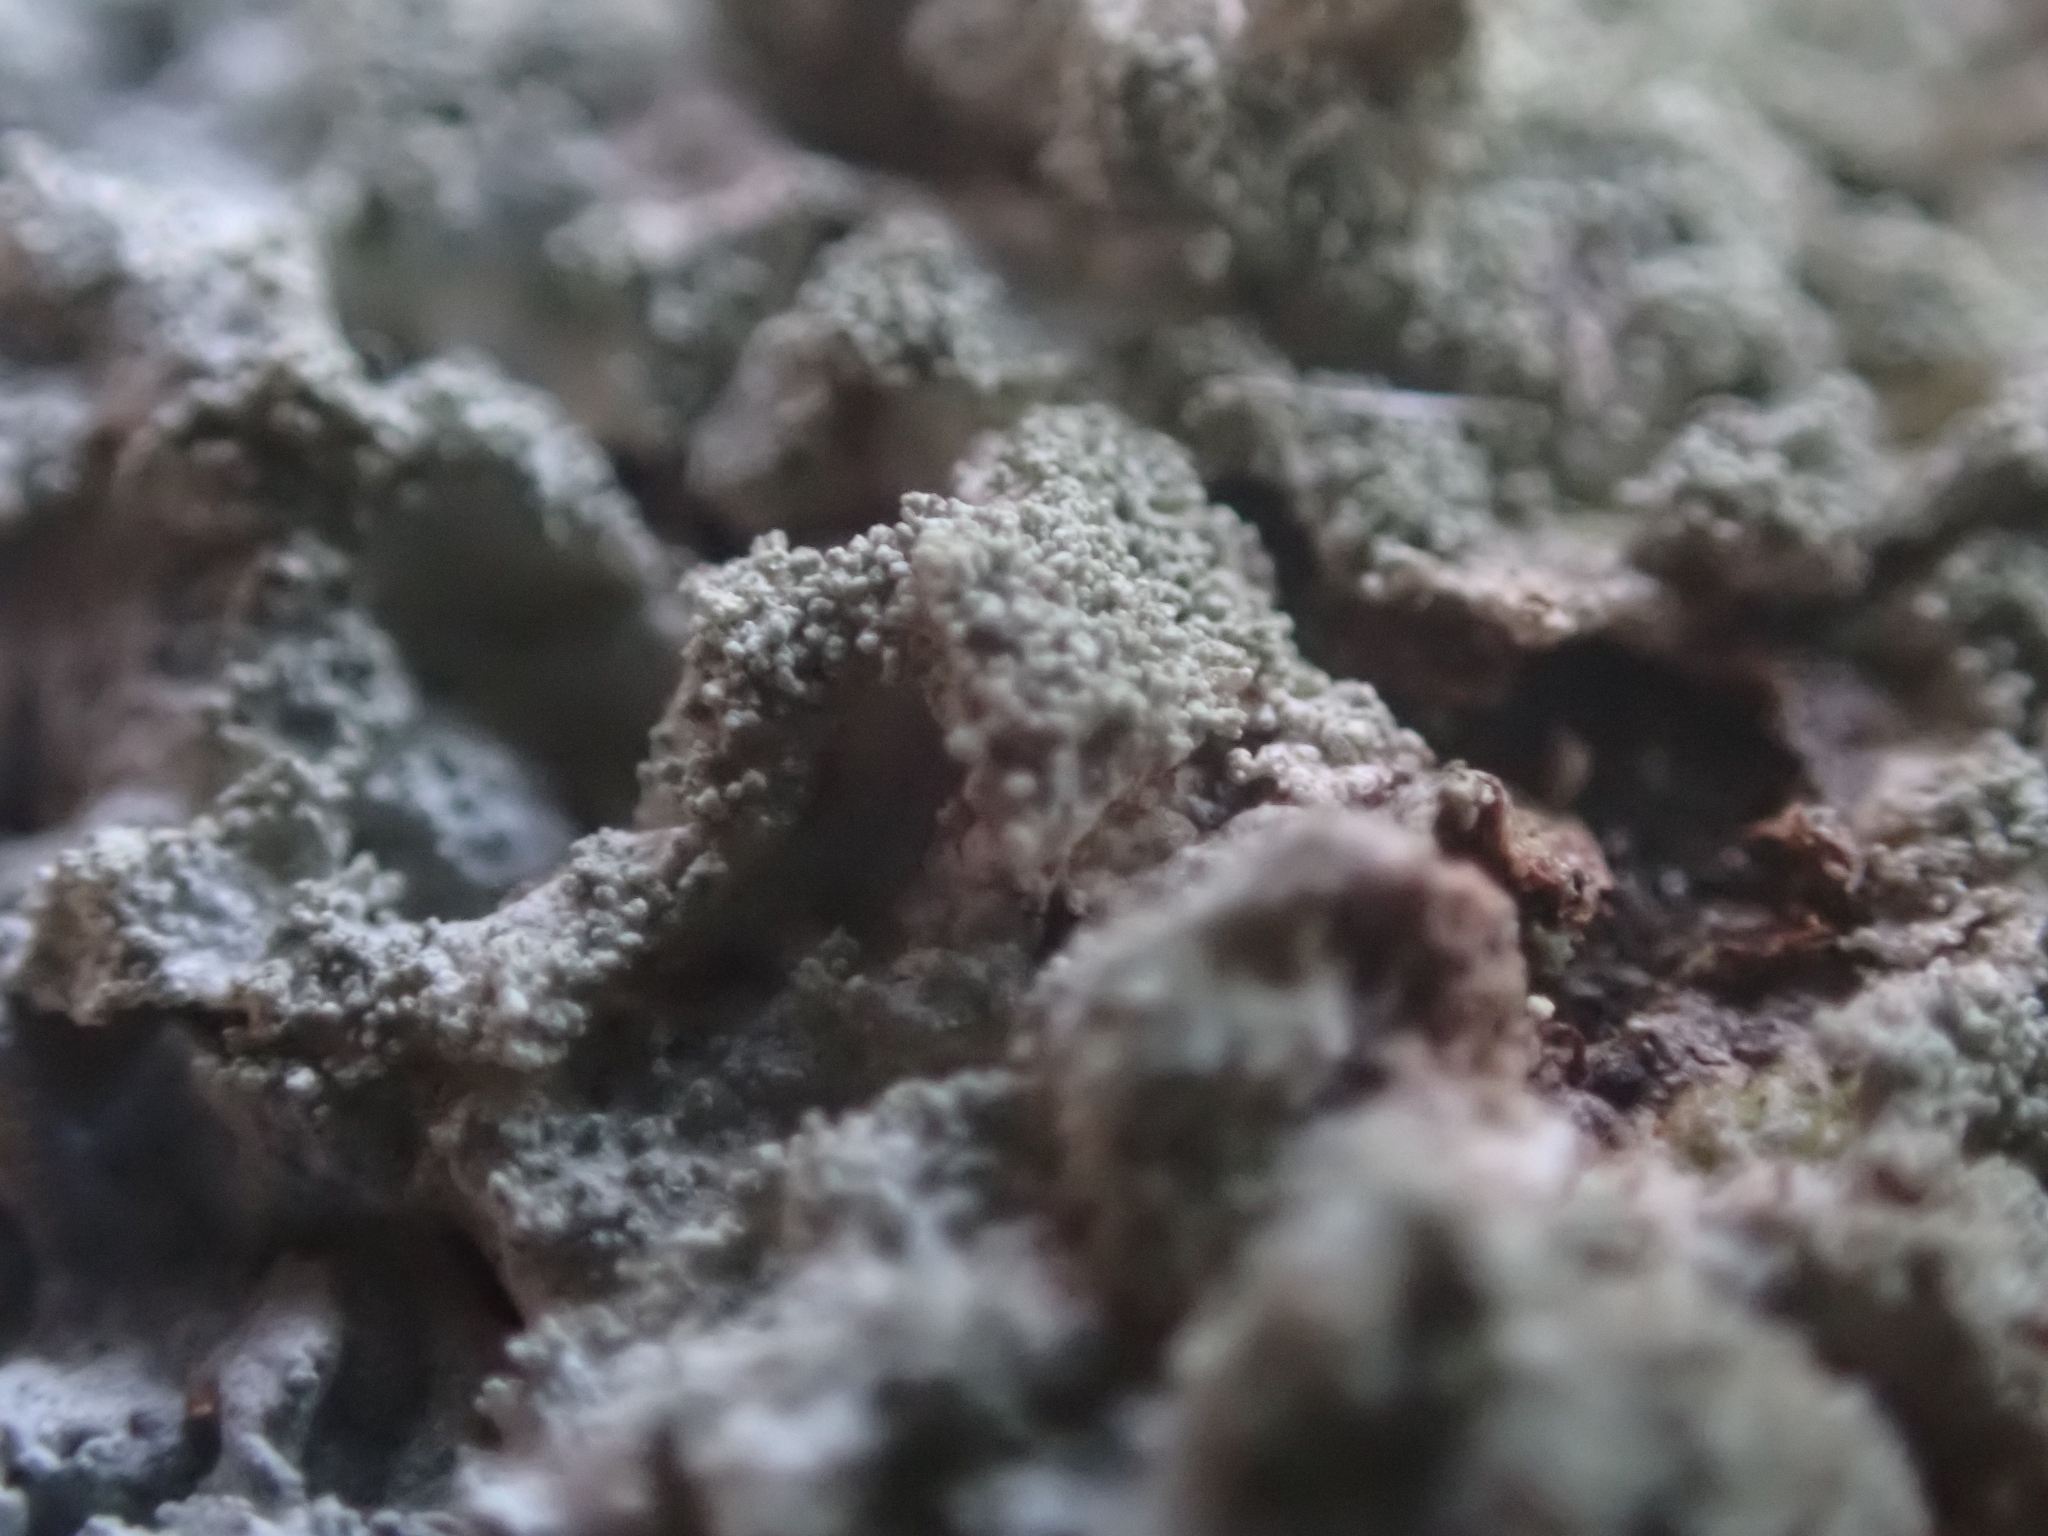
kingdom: Fungi
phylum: Ascomycota
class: Lecanoromycetes
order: Lecanorales
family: Parmeliaceae
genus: Imshaugia
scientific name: Imshaugia aleurites
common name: Salted starburst lichen
